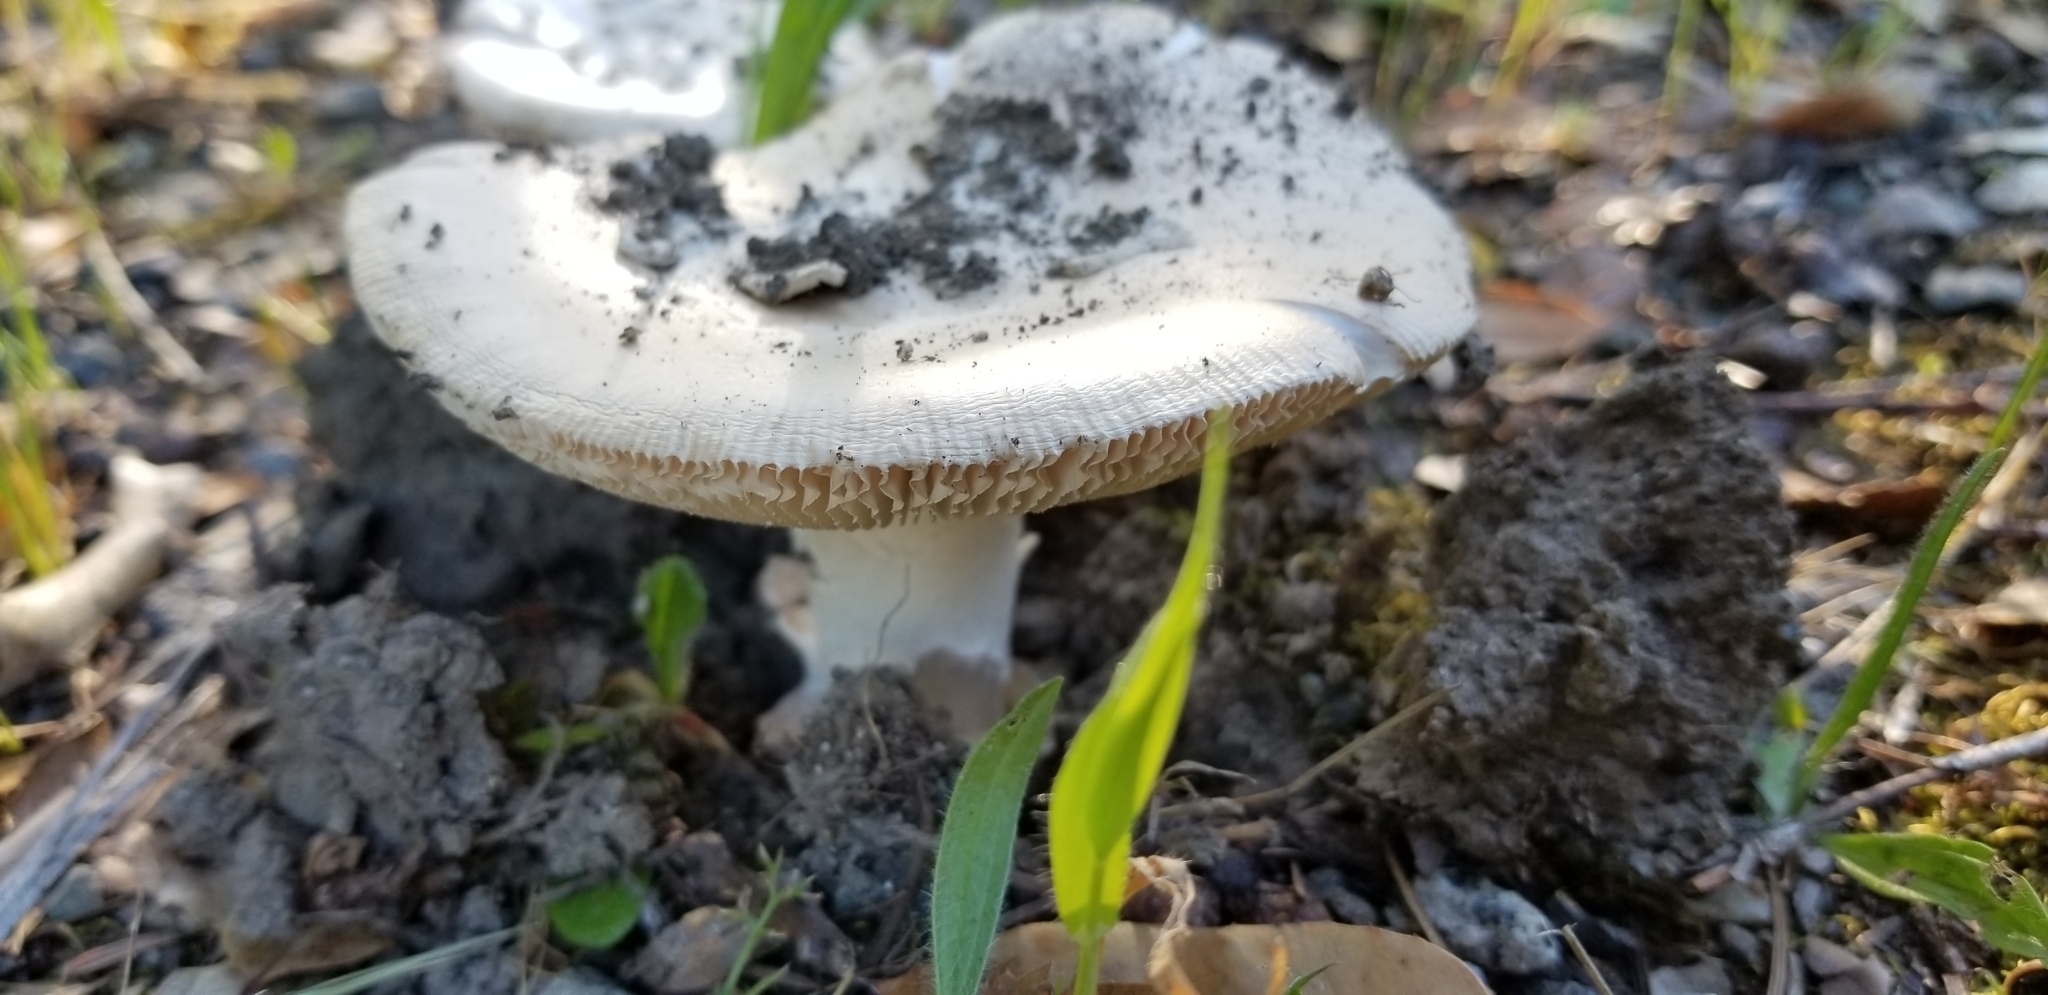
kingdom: Fungi
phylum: Basidiomycota
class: Agaricomycetes
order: Agaricales
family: Amanitaceae
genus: Amanita
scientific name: Amanita velosa
